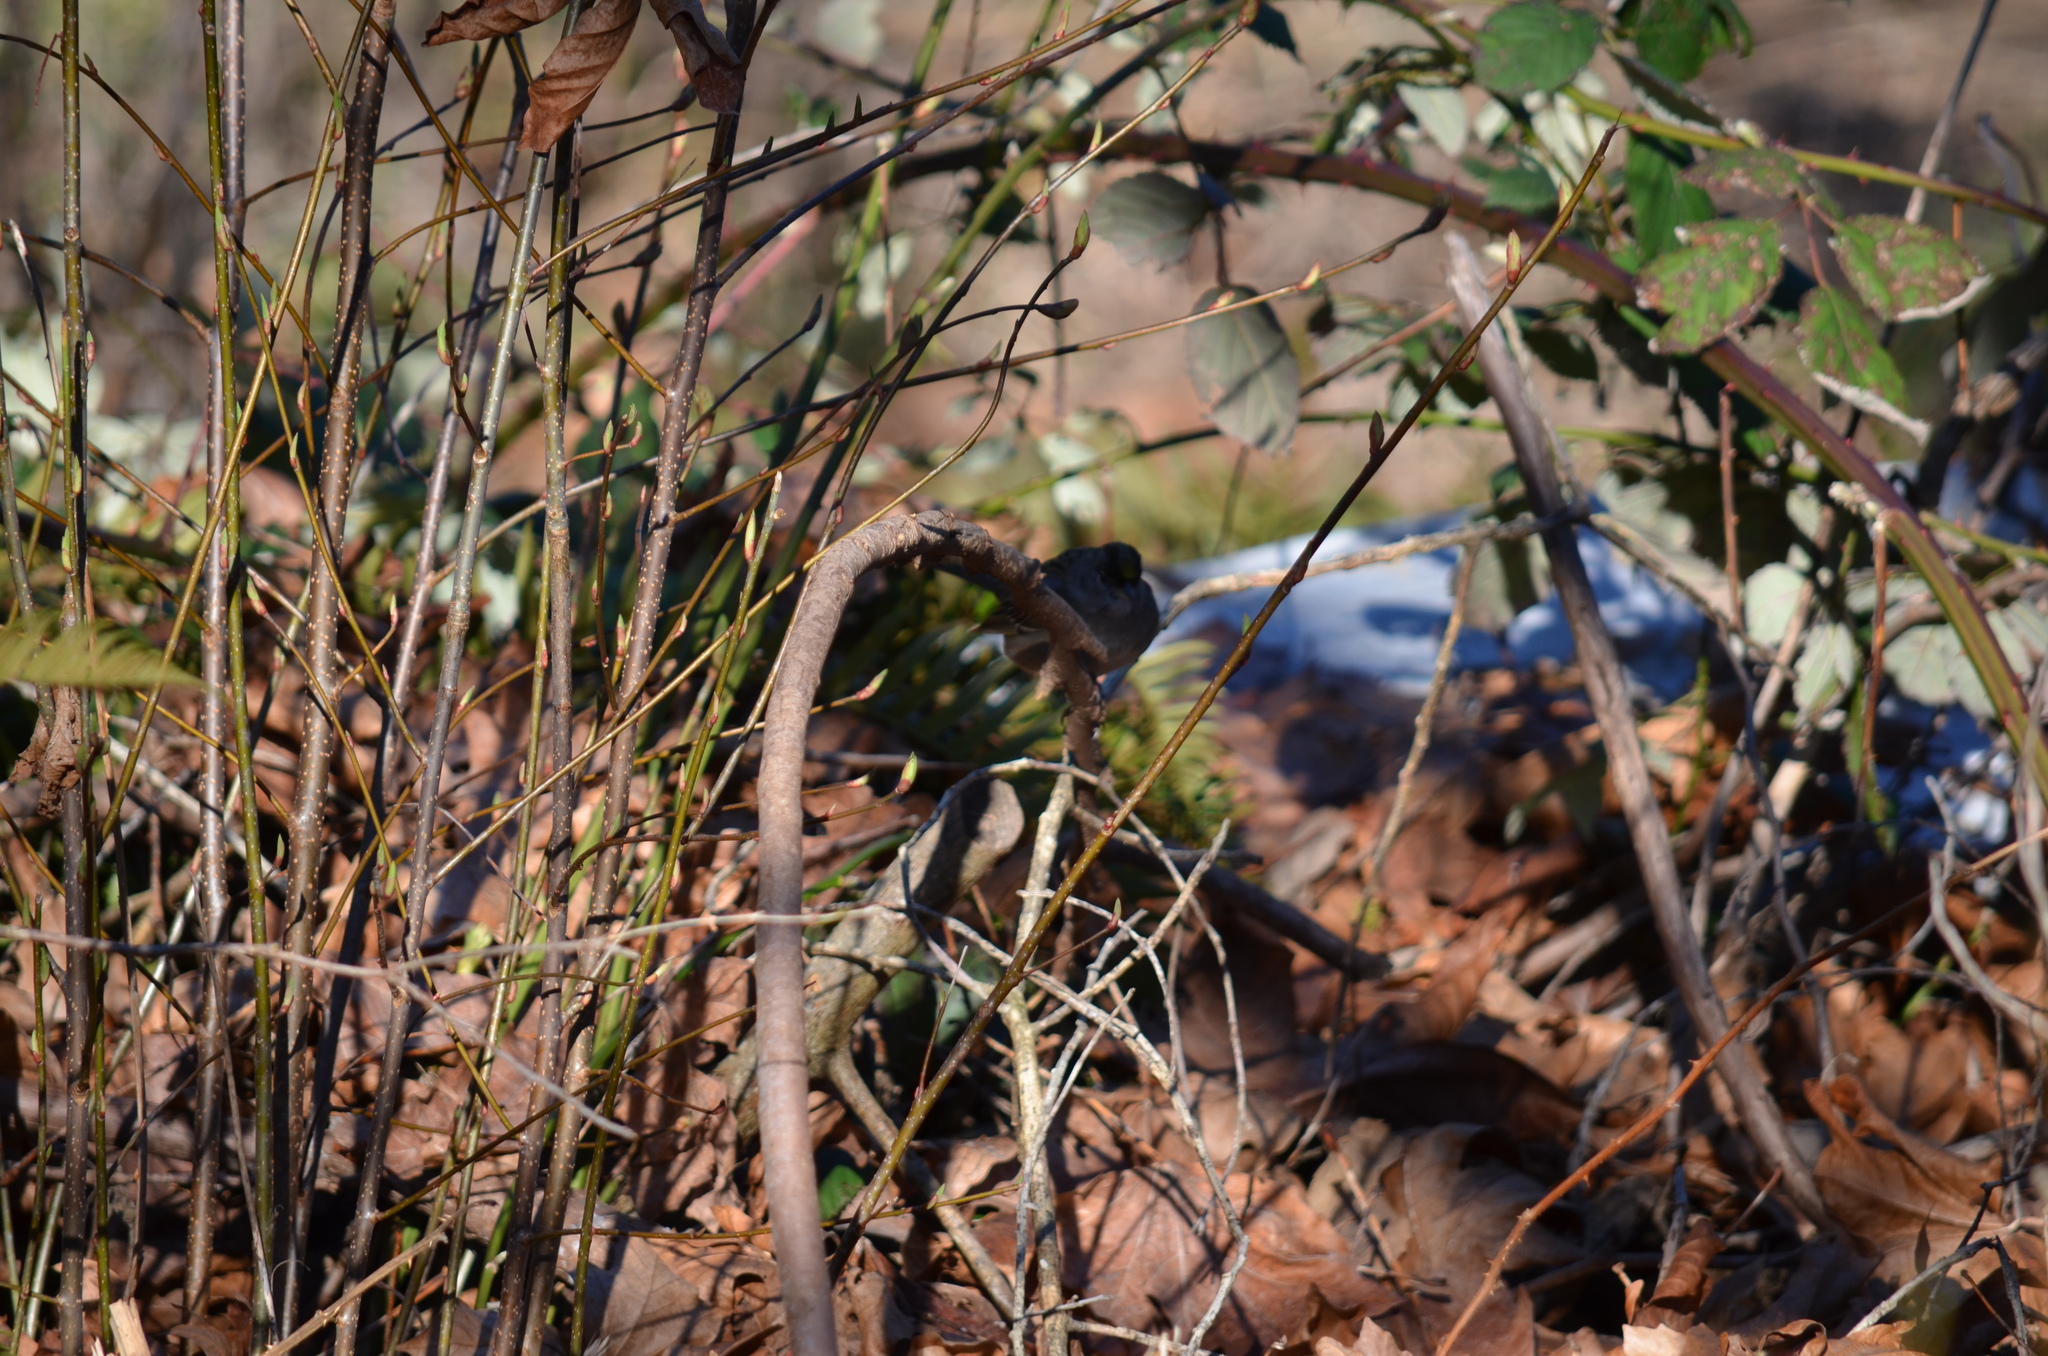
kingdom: Animalia
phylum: Chordata
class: Aves
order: Passeriformes
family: Passerellidae
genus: Zonotrichia
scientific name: Zonotrichia atricapilla
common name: Golden-crowned sparrow
